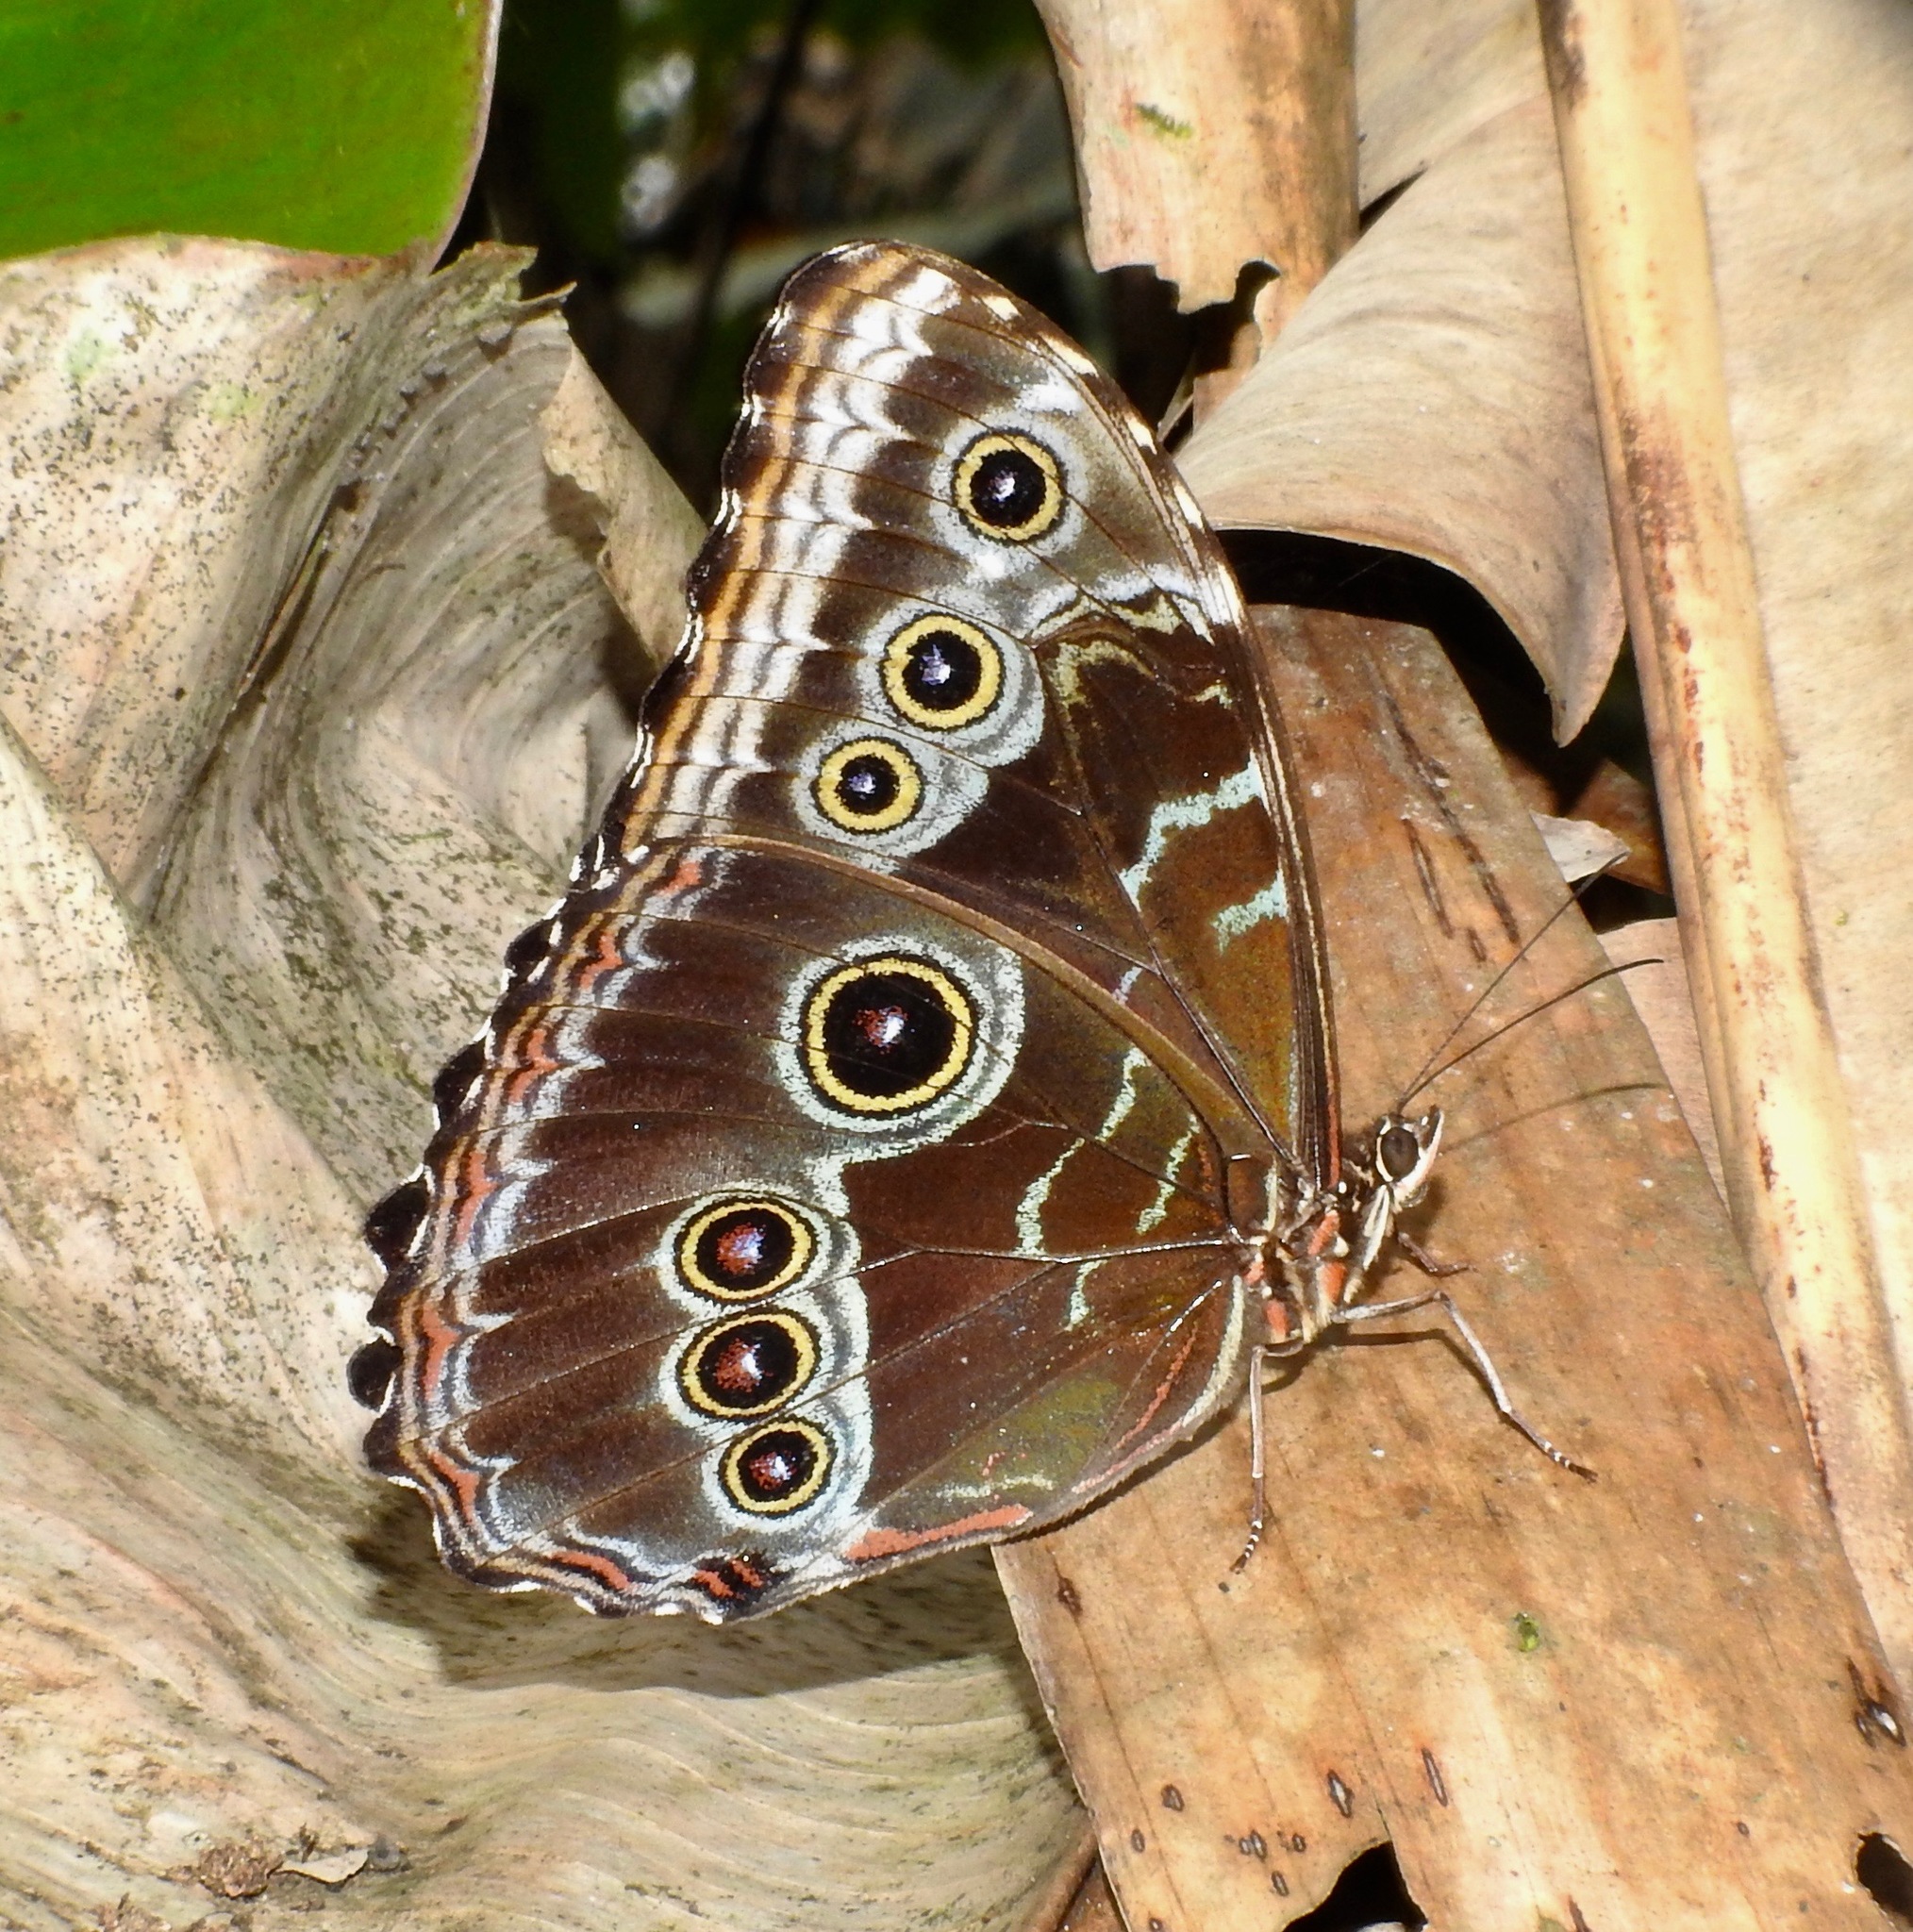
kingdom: Animalia
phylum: Arthropoda
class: Insecta
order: Lepidoptera
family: Nymphalidae
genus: Morpho
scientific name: Morpho helenor
